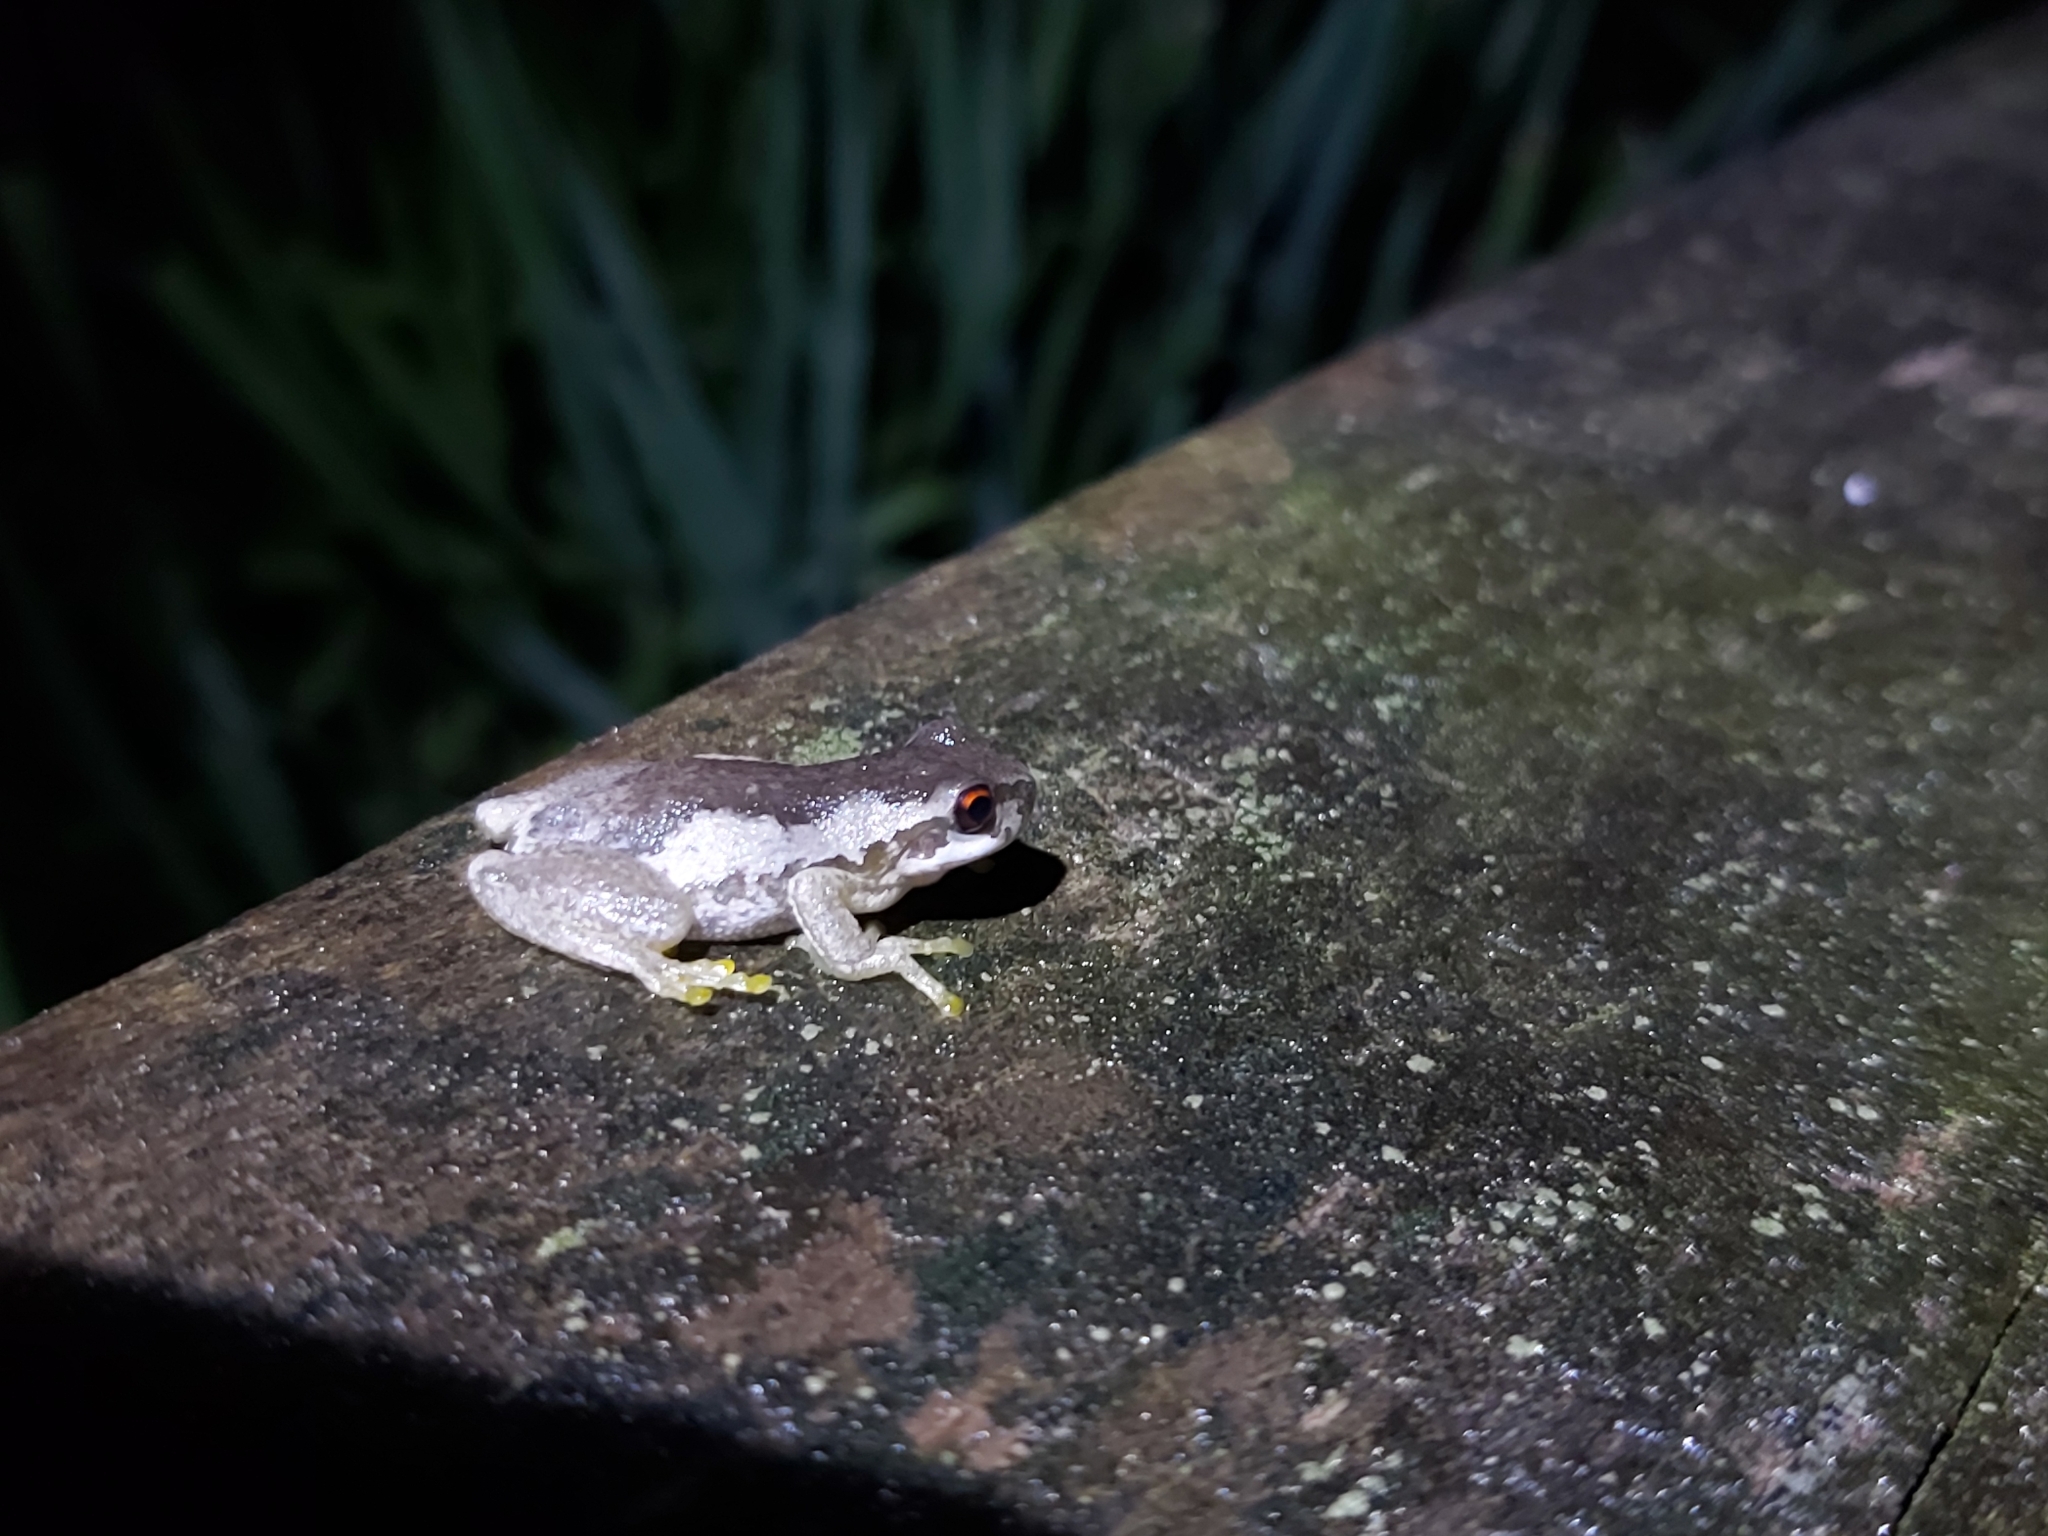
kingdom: Animalia
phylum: Chordata
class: Amphibia
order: Anura
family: Pelodryadidae
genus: Litoria
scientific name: Litoria quiritatus
